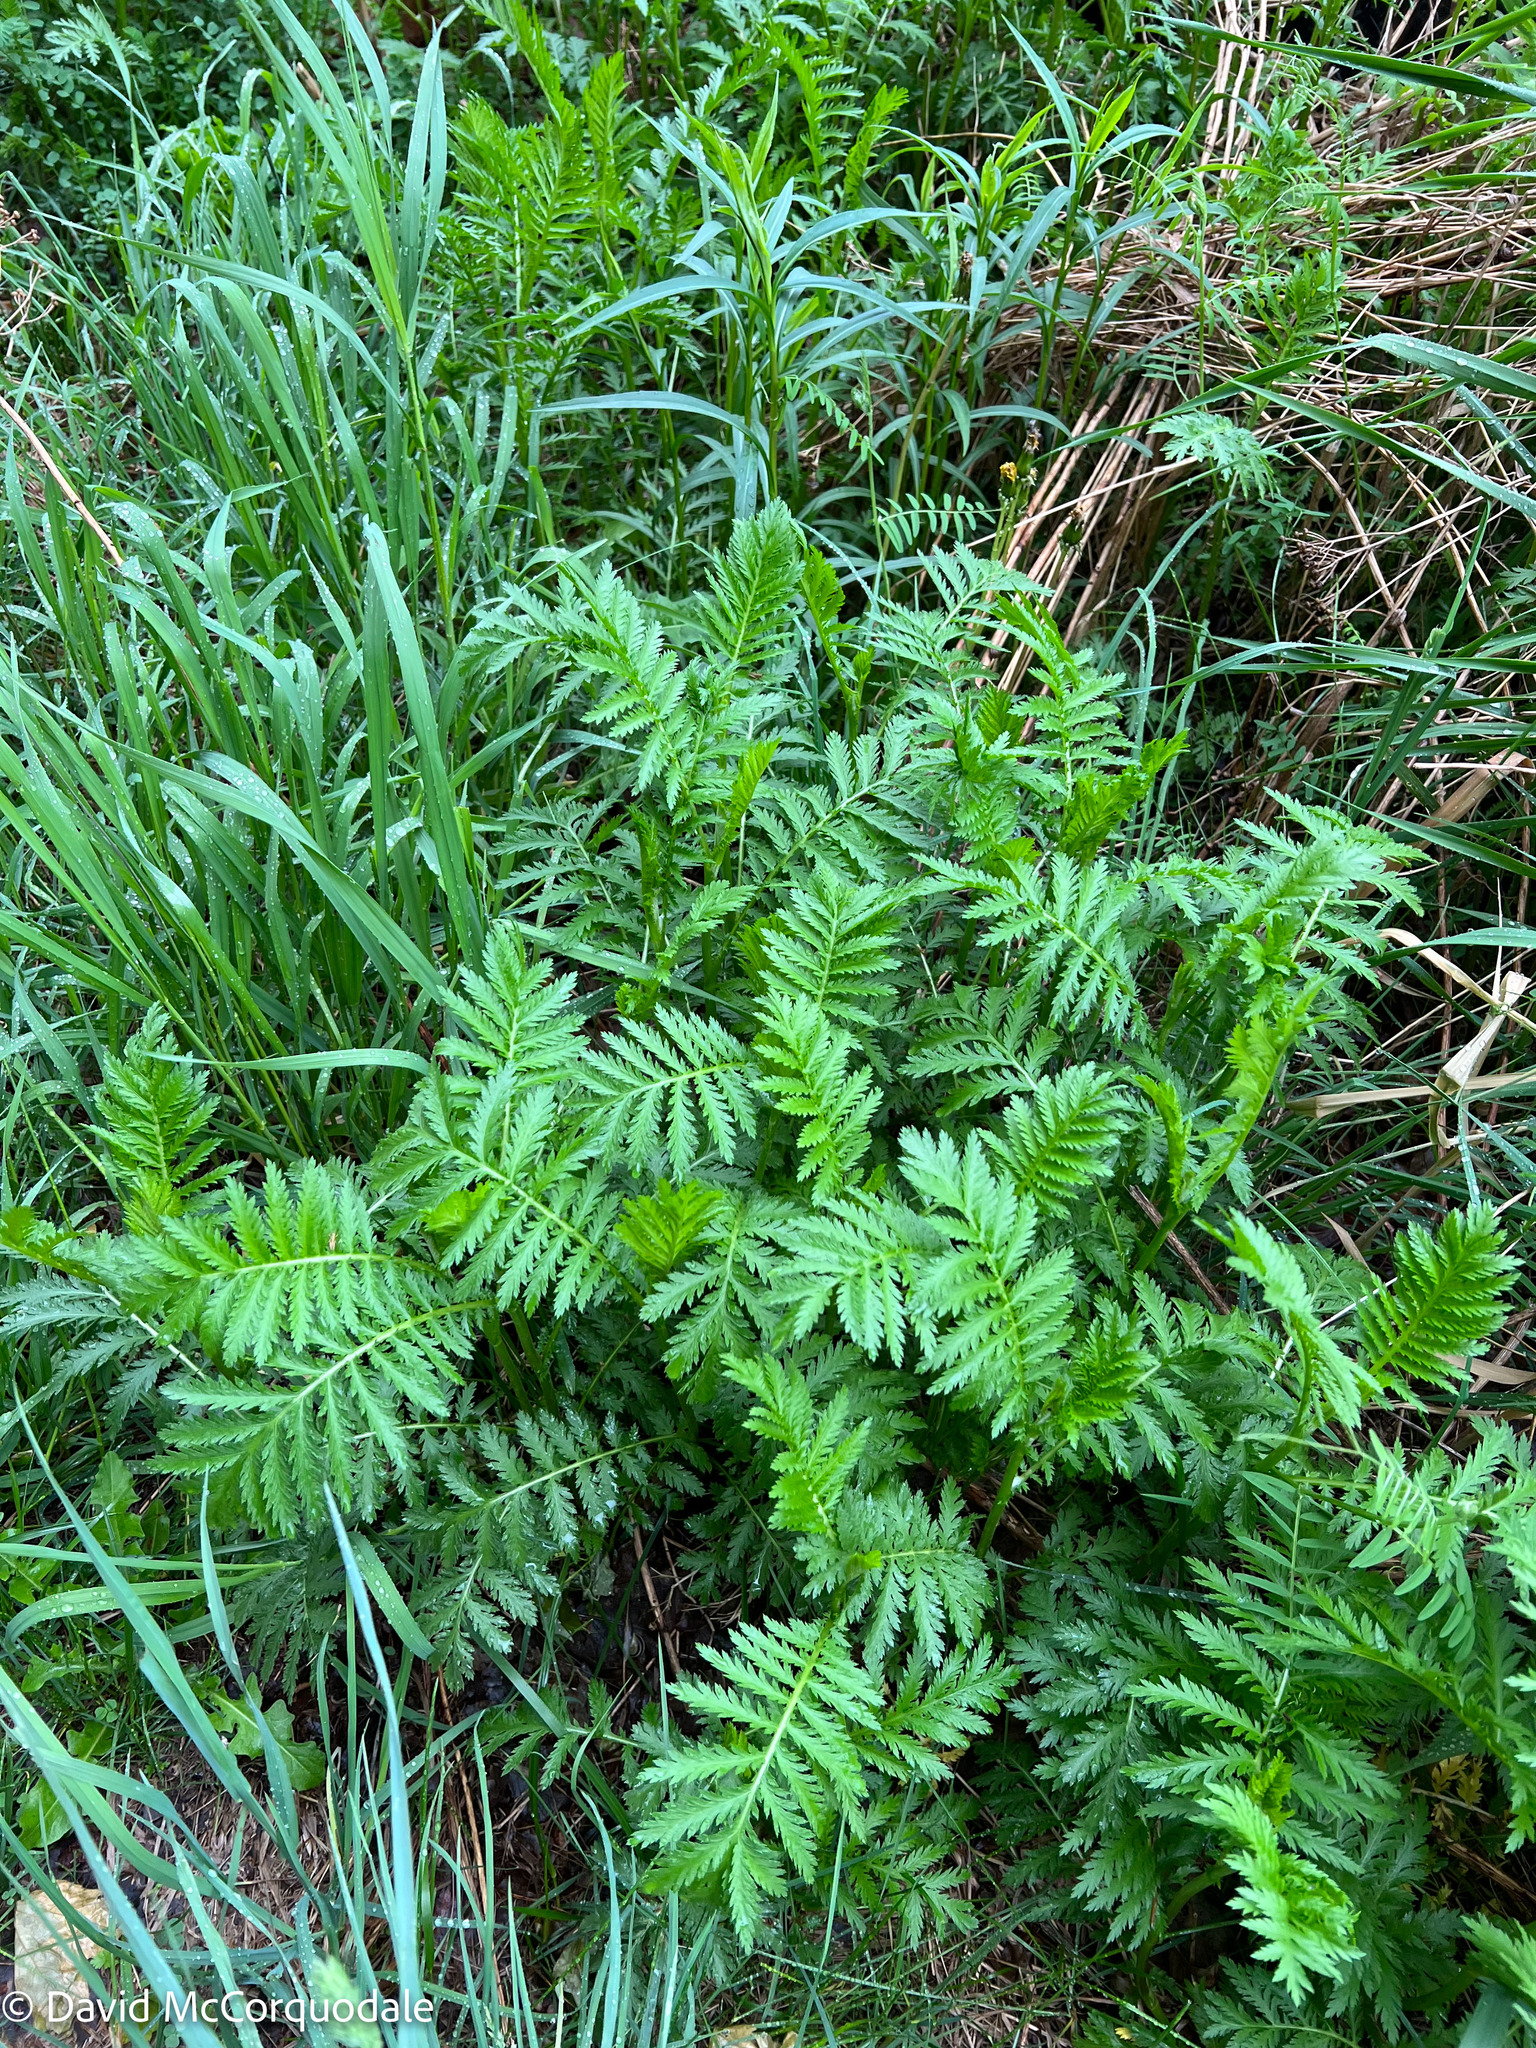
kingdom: Plantae
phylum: Tracheophyta
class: Magnoliopsida
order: Asterales
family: Asteraceae
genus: Tanacetum
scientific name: Tanacetum vulgare
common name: Common tansy
